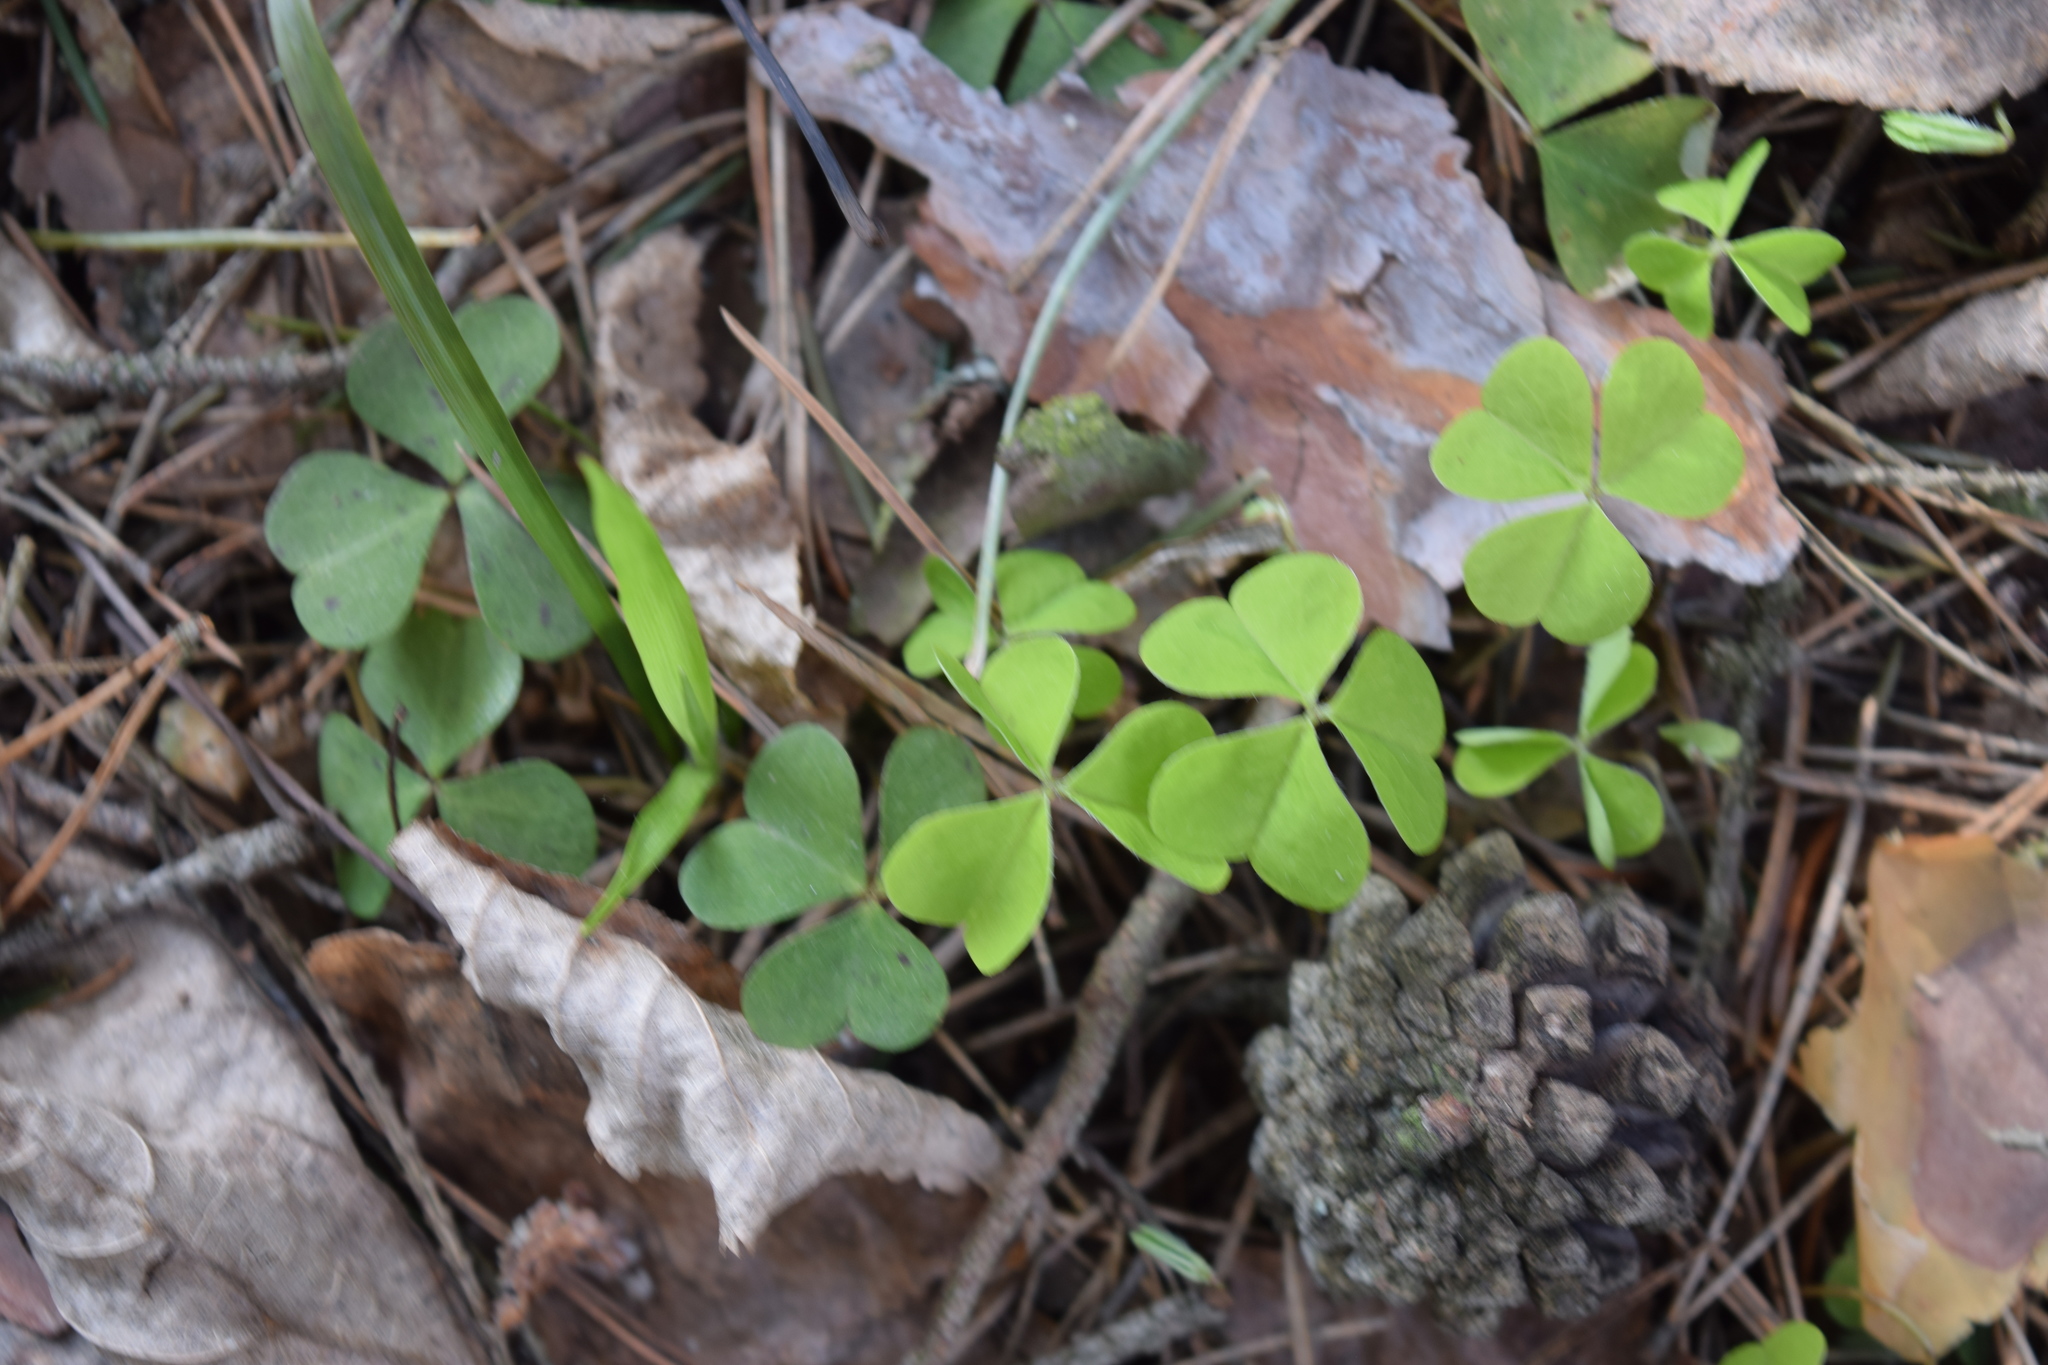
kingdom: Plantae
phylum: Tracheophyta
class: Magnoliopsida
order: Oxalidales
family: Oxalidaceae
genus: Oxalis
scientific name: Oxalis acetosella
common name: Wood-sorrel
